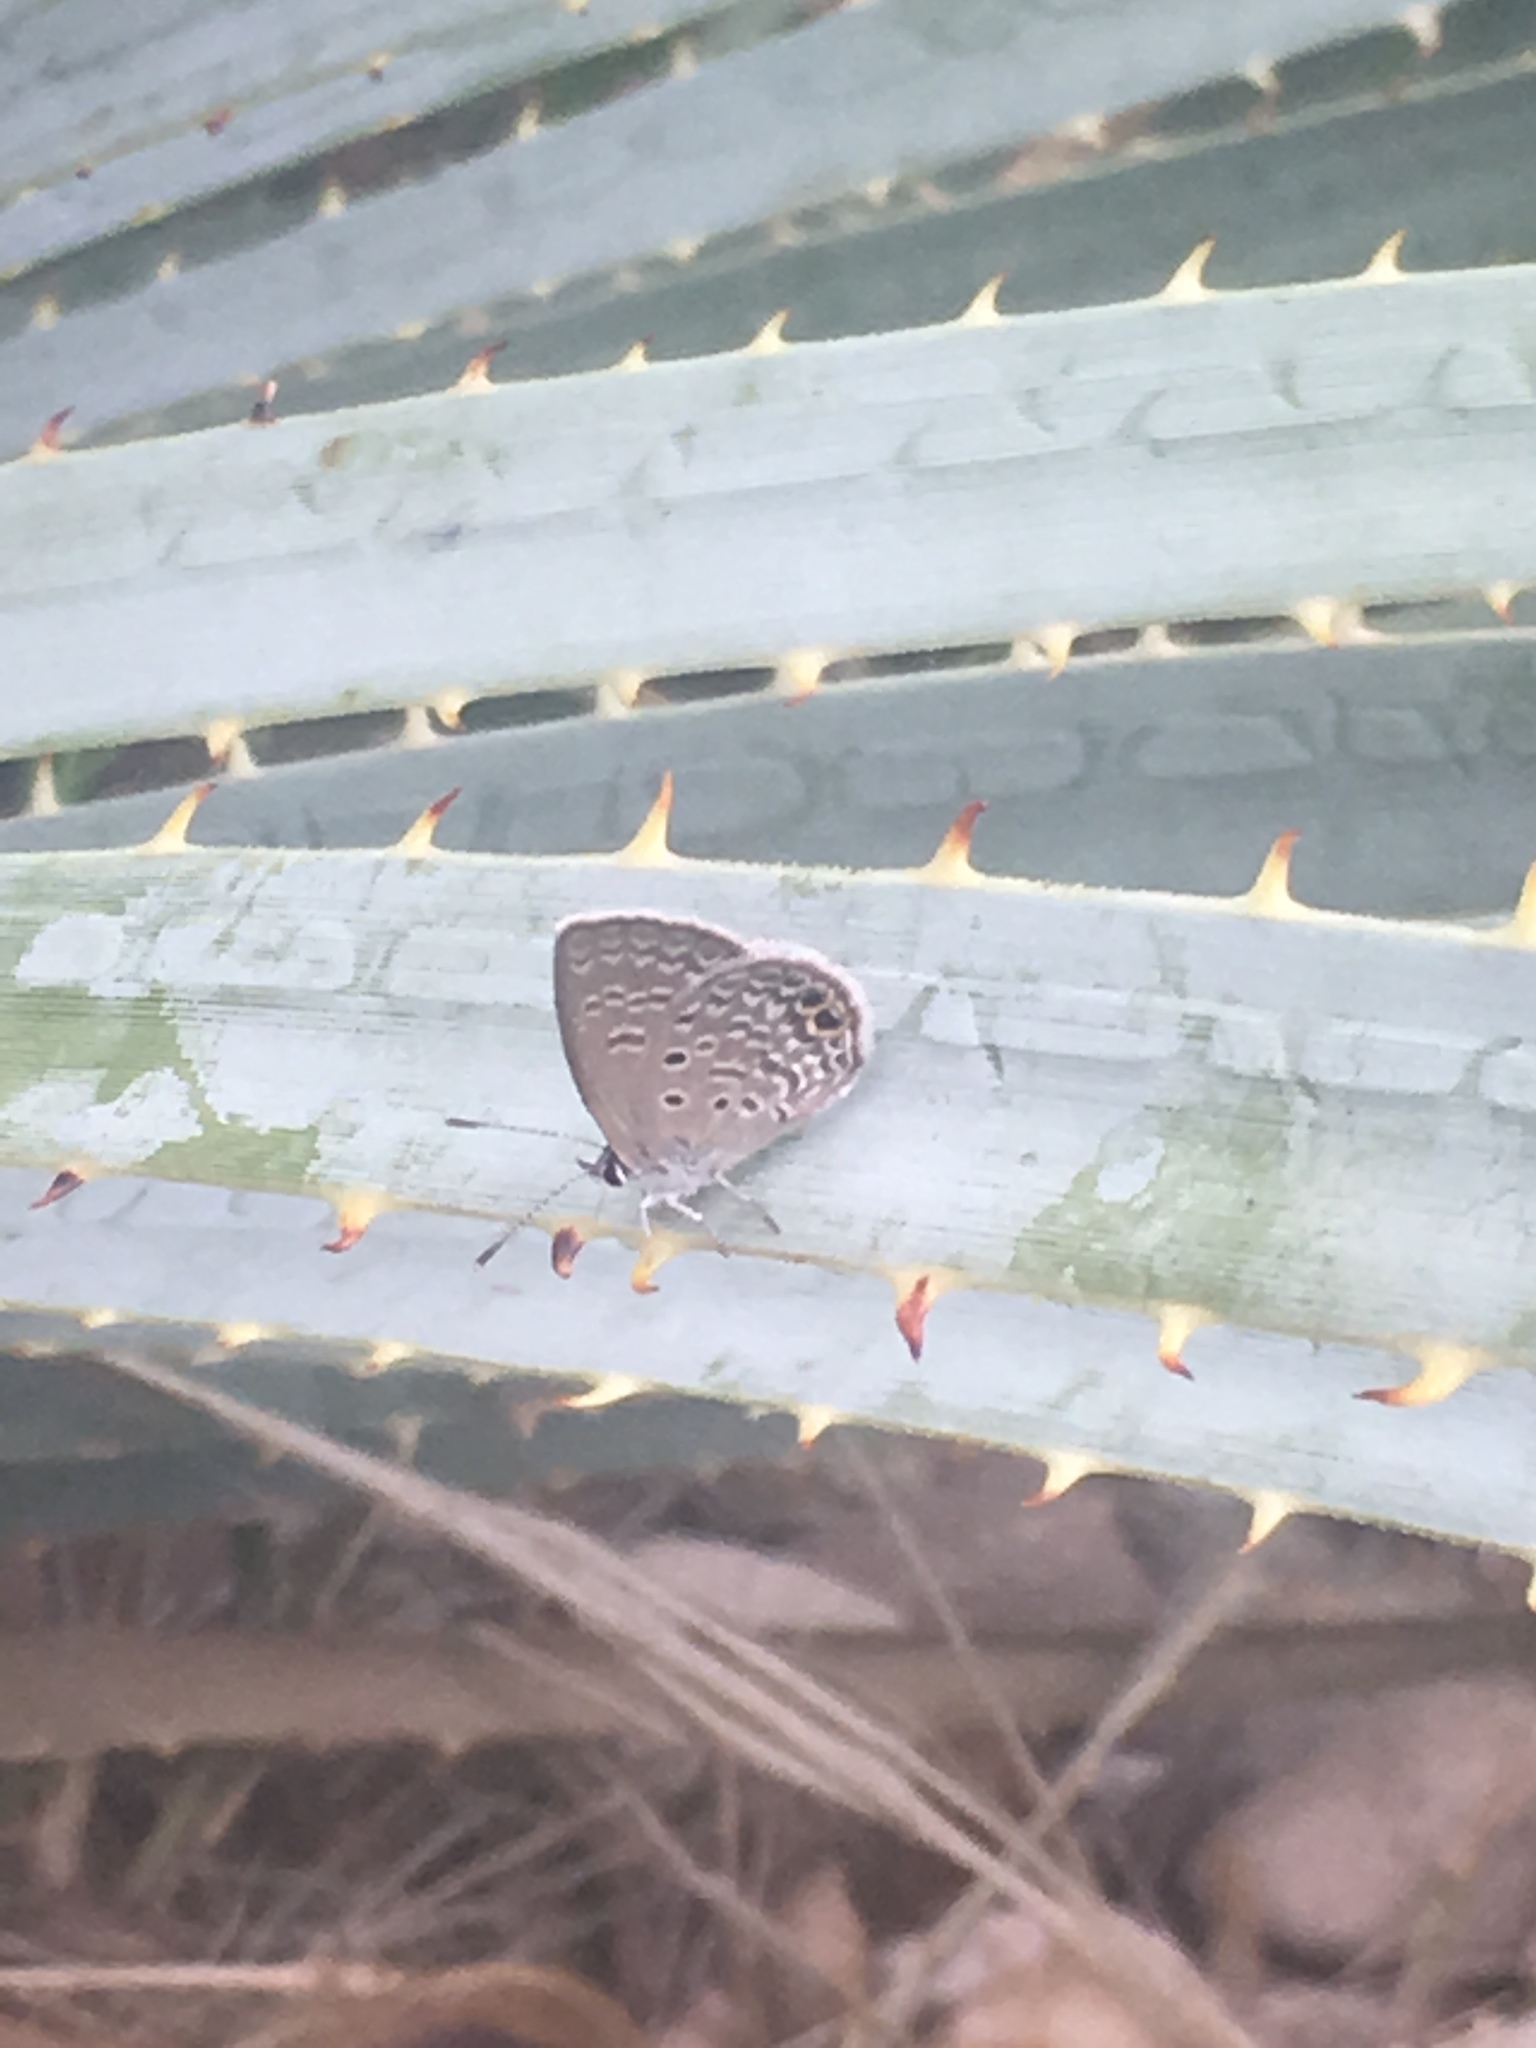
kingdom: Animalia
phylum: Arthropoda
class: Insecta
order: Lepidoptera
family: Lycaenidae
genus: Hemiargus
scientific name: Hemiargus ceraunus
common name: Ceraunus blue
